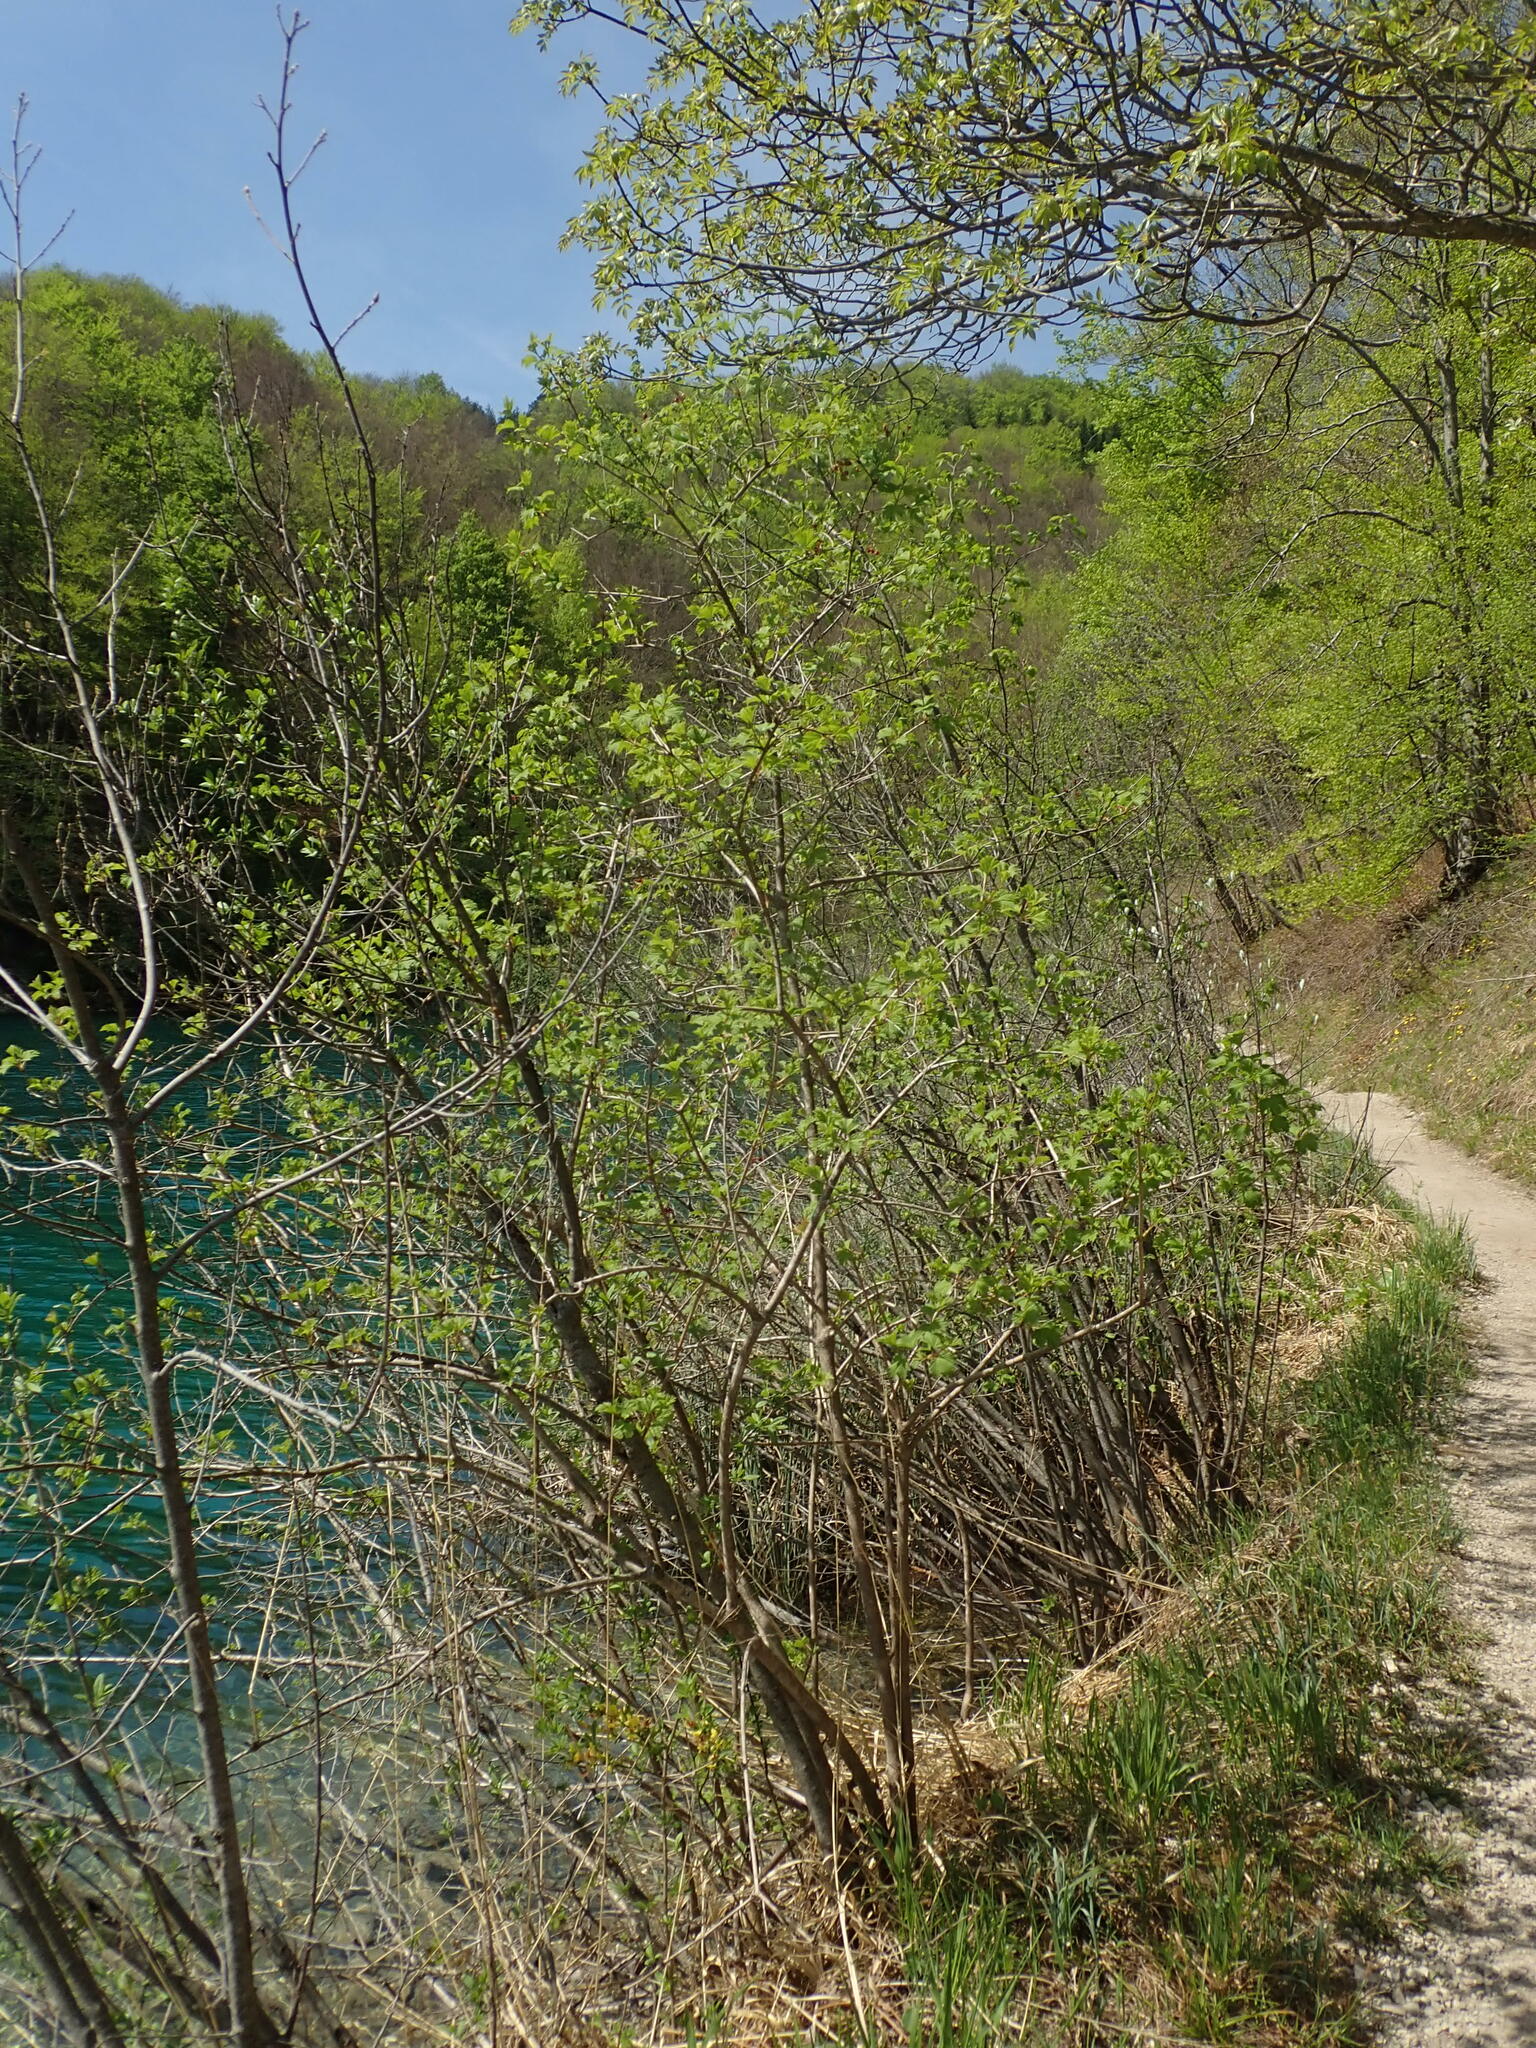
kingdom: Plantae
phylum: Tracheophyta
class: Magnoliopsida
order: Dipsacales
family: Viburnaceae
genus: Viburnum
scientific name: Viburnum opulus
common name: Guelder-rose
